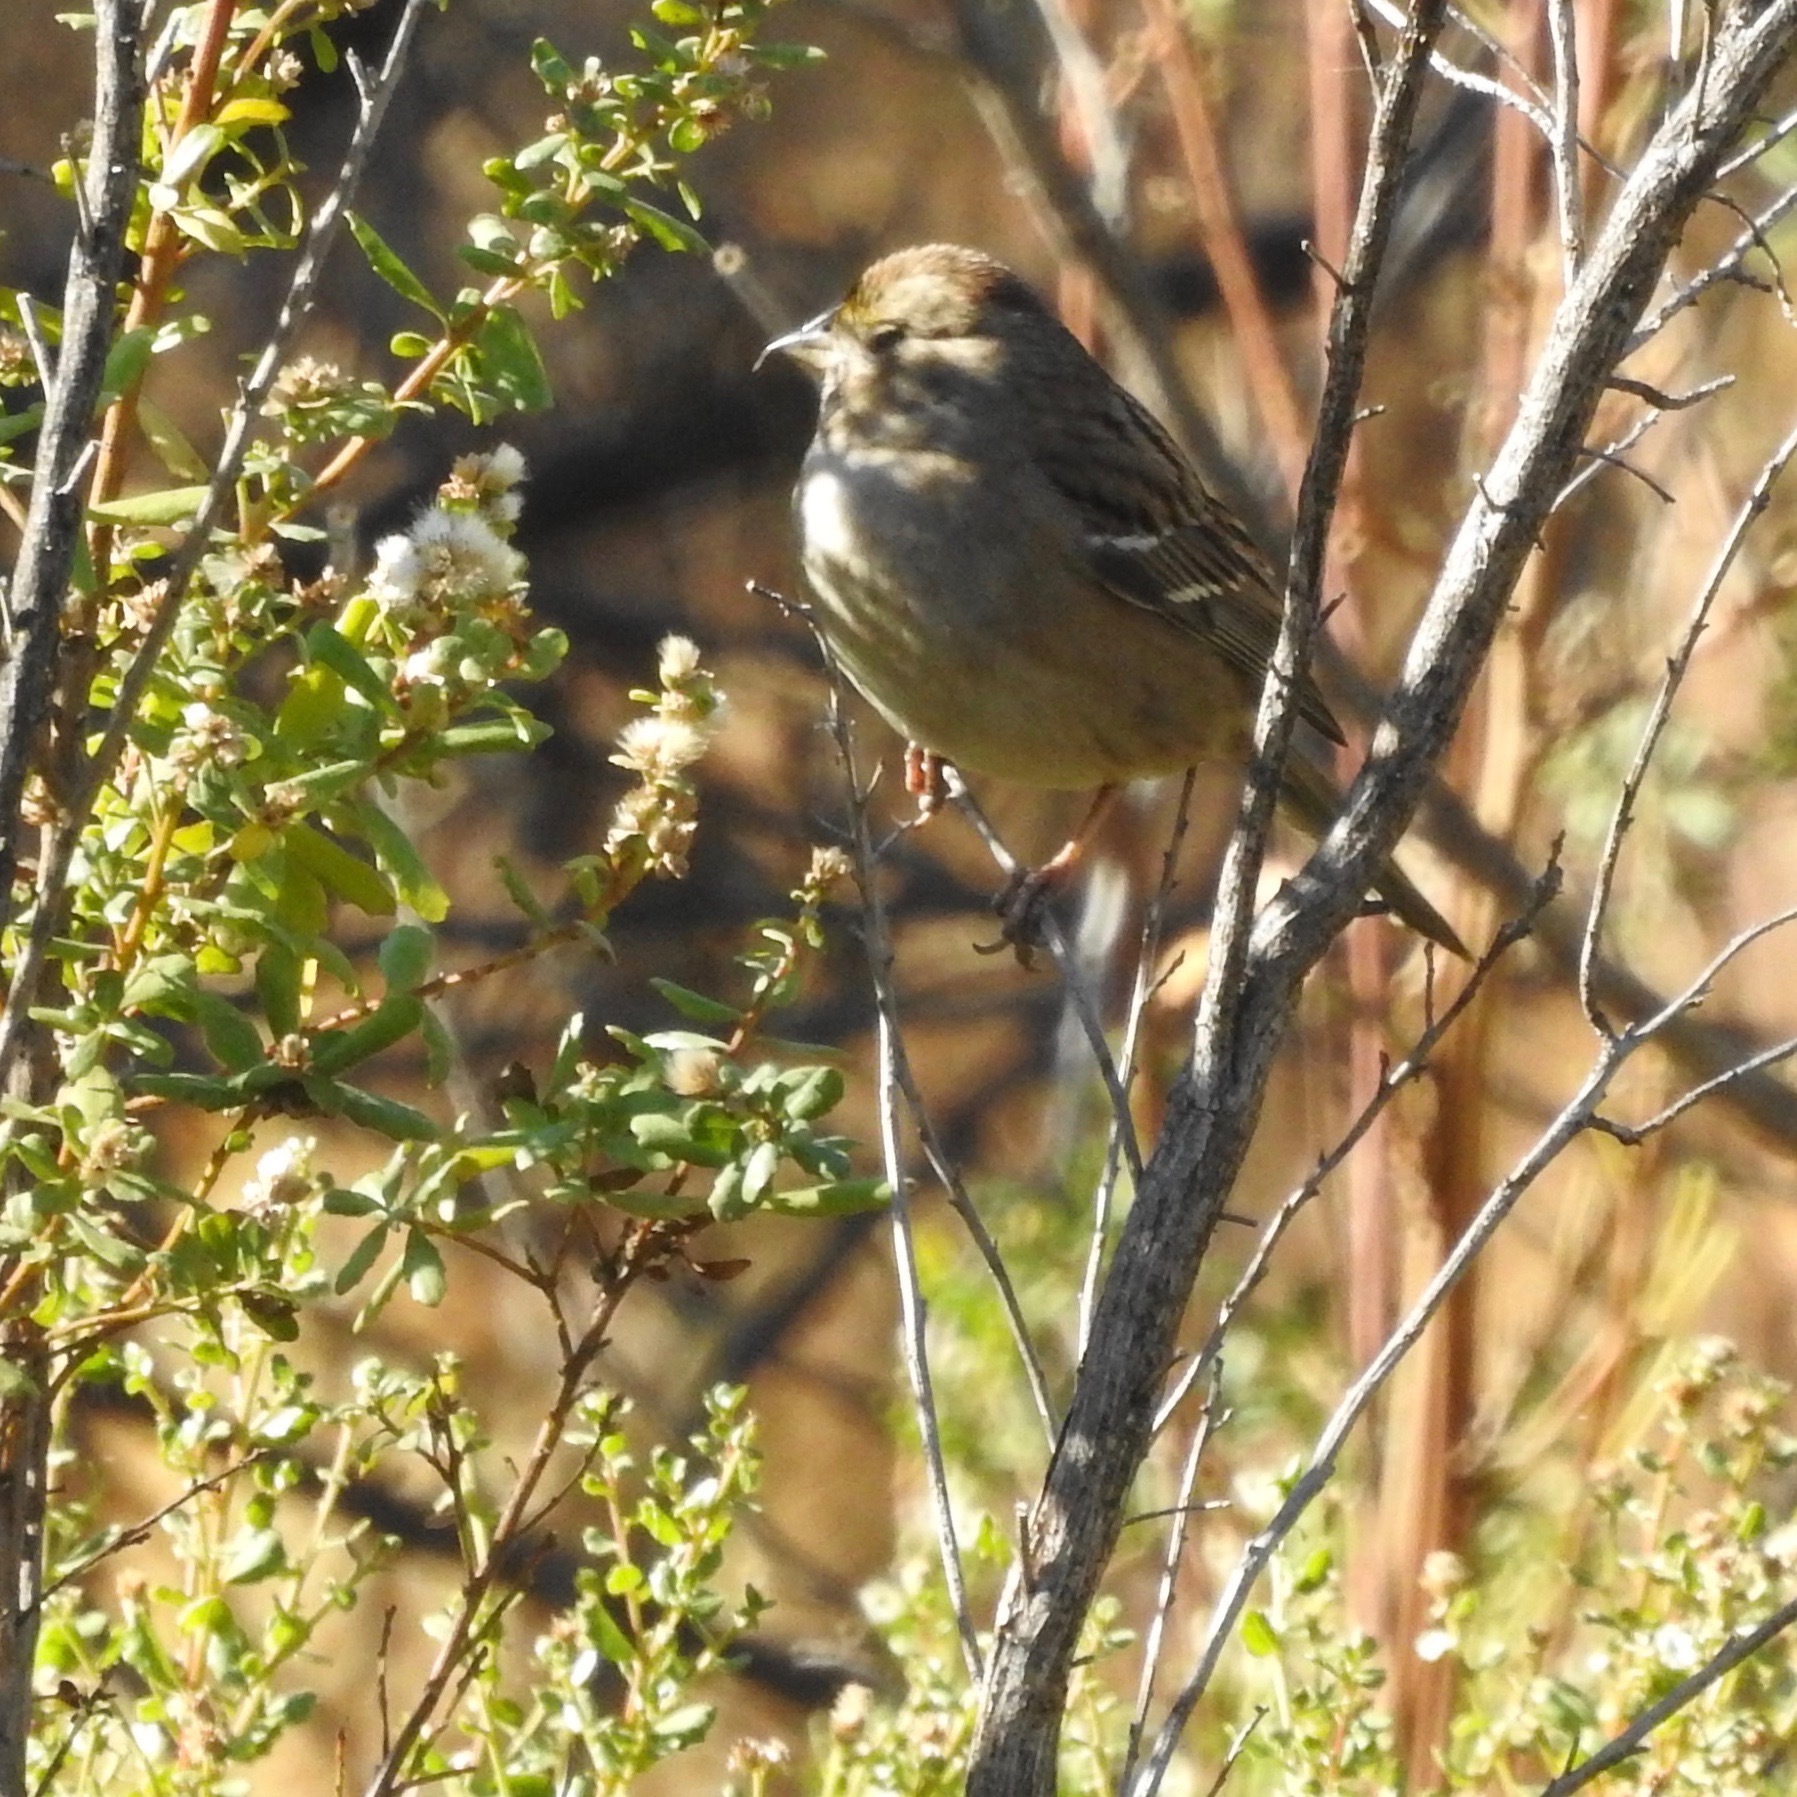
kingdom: Animalia
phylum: Chordata
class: Aves
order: Passeriformes
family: Passerellidae
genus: Zonotrichia
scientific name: Zonotrichia atricapilla
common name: Golden-crowned sparrow
